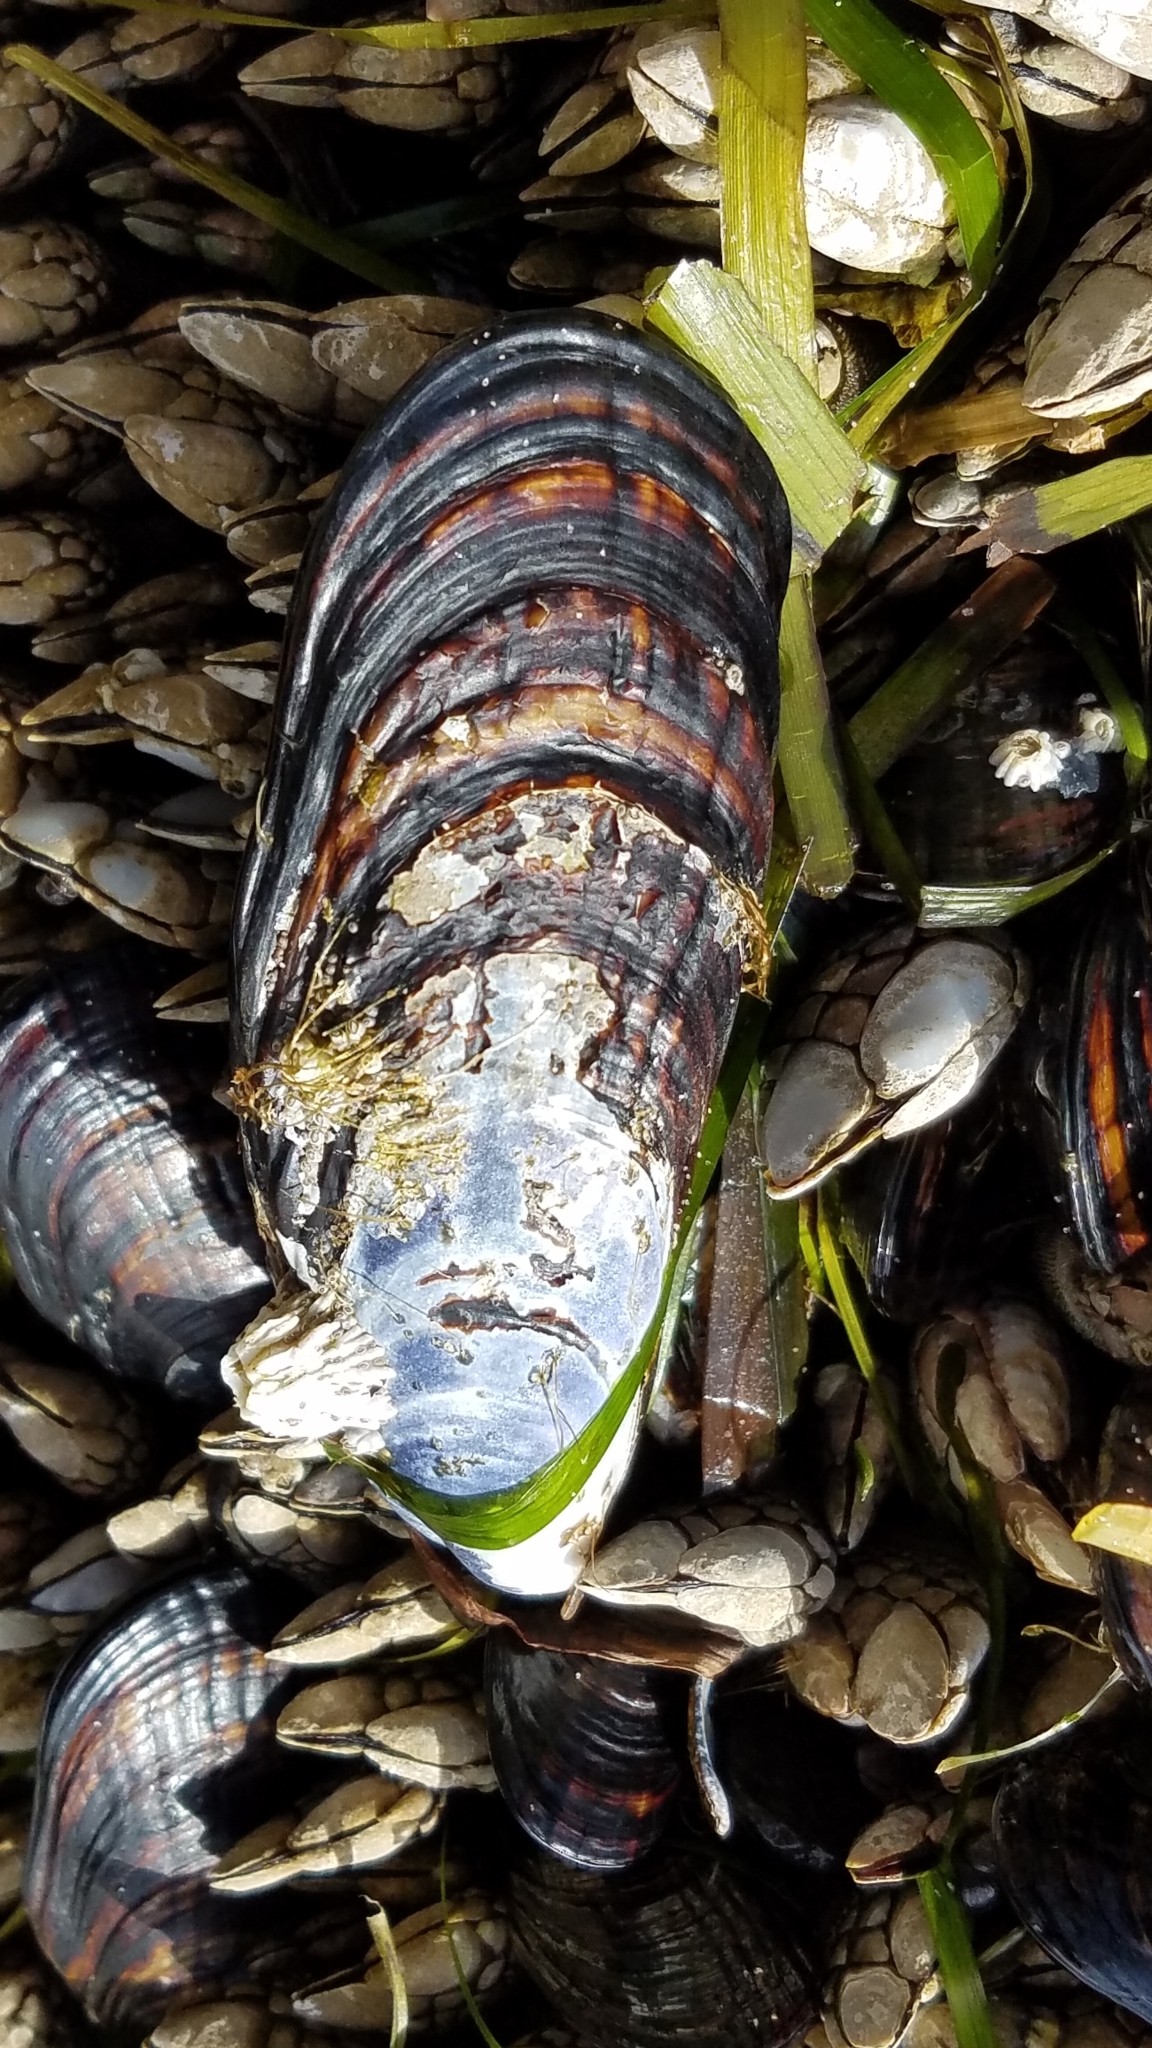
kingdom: Animalia
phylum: Mollusca
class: Bivalvia
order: Mytilida
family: Mytilidae
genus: Mytilus
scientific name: Mytilus californianus
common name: California mussel
